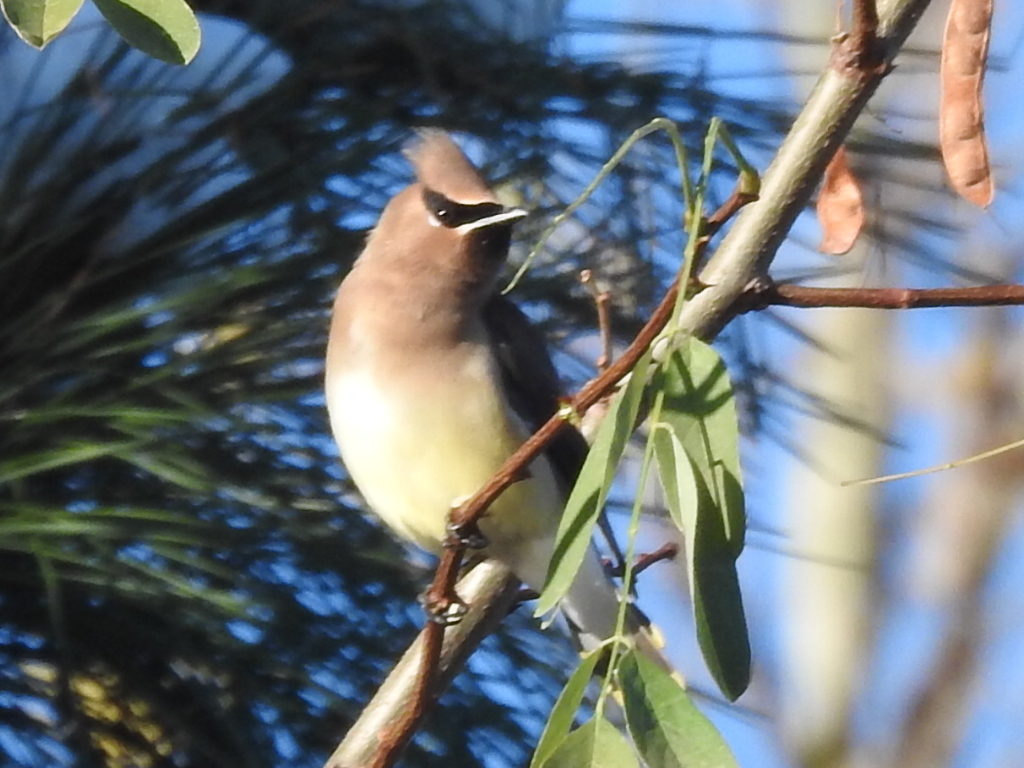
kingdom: Animalia
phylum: Chordata
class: Aves
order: Passeriformes
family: Bombycillidae
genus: Bombycilla
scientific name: Bombycilla cedrorum
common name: Cedar waxwing
